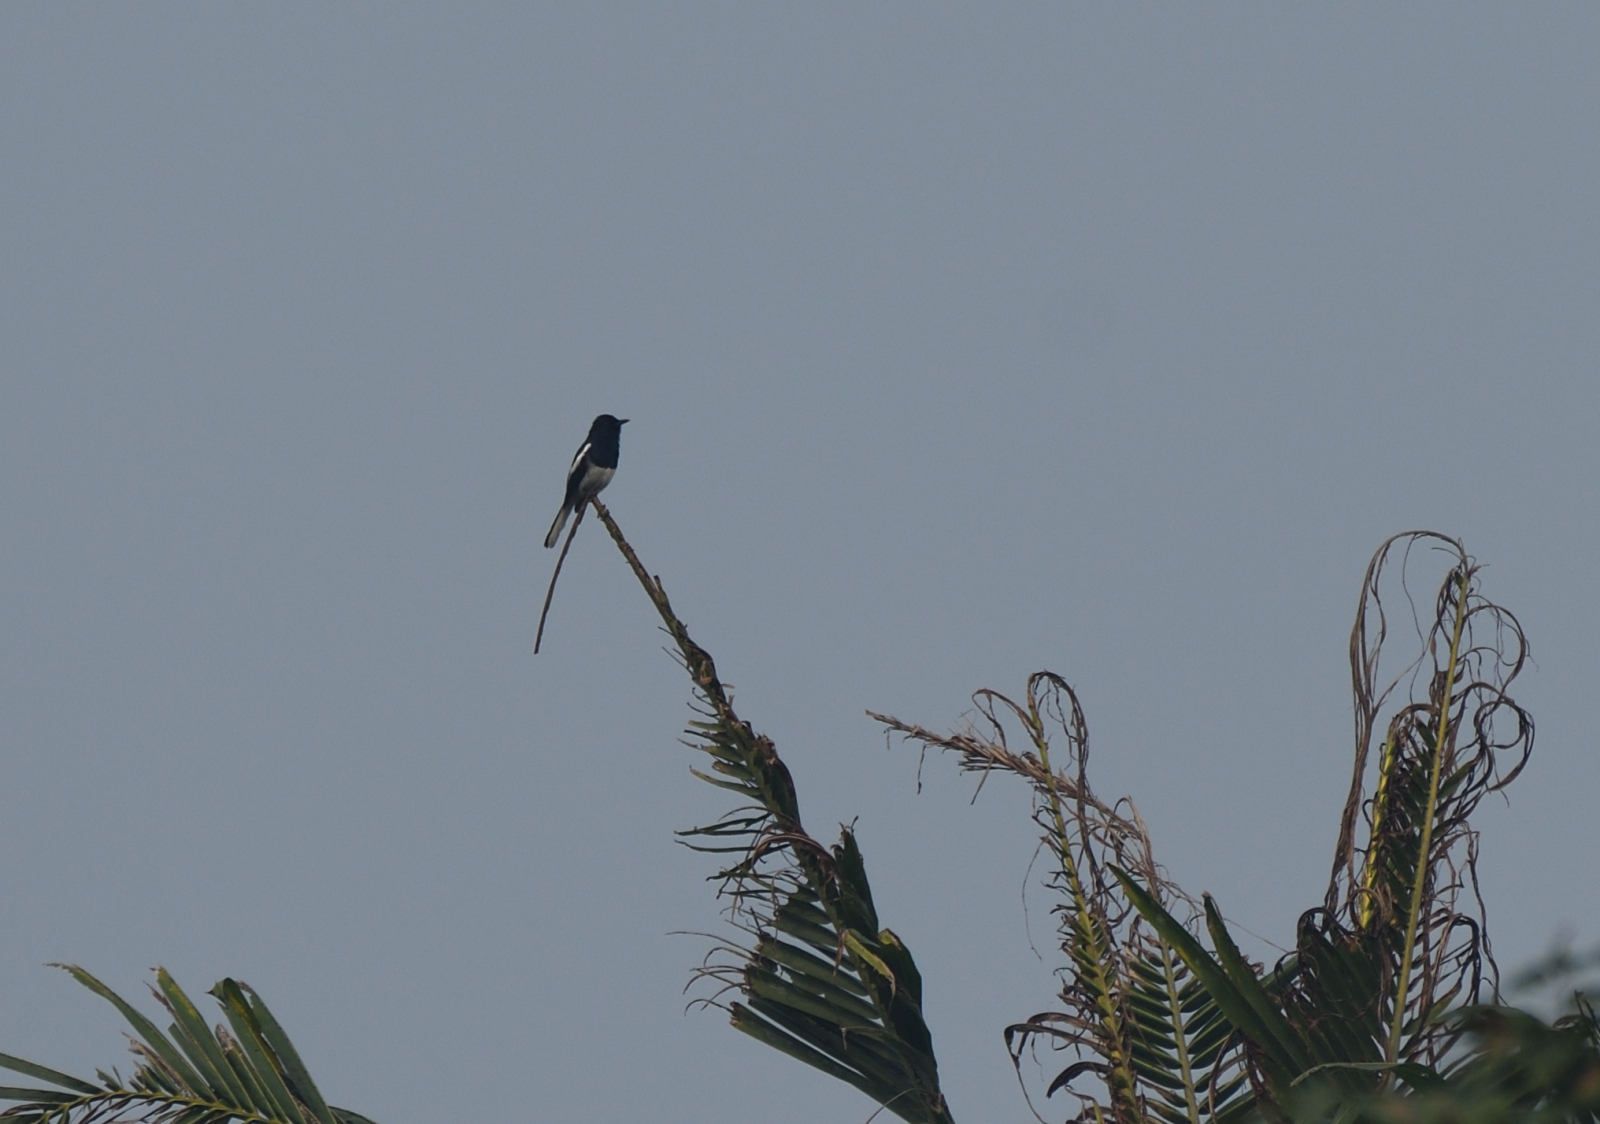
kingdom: Animalia
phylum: Chordata
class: Aves
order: Passeriformes
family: Muscicapidae
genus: Copsychus
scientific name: Copsychus saularis
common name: Oriental magpie-robin
